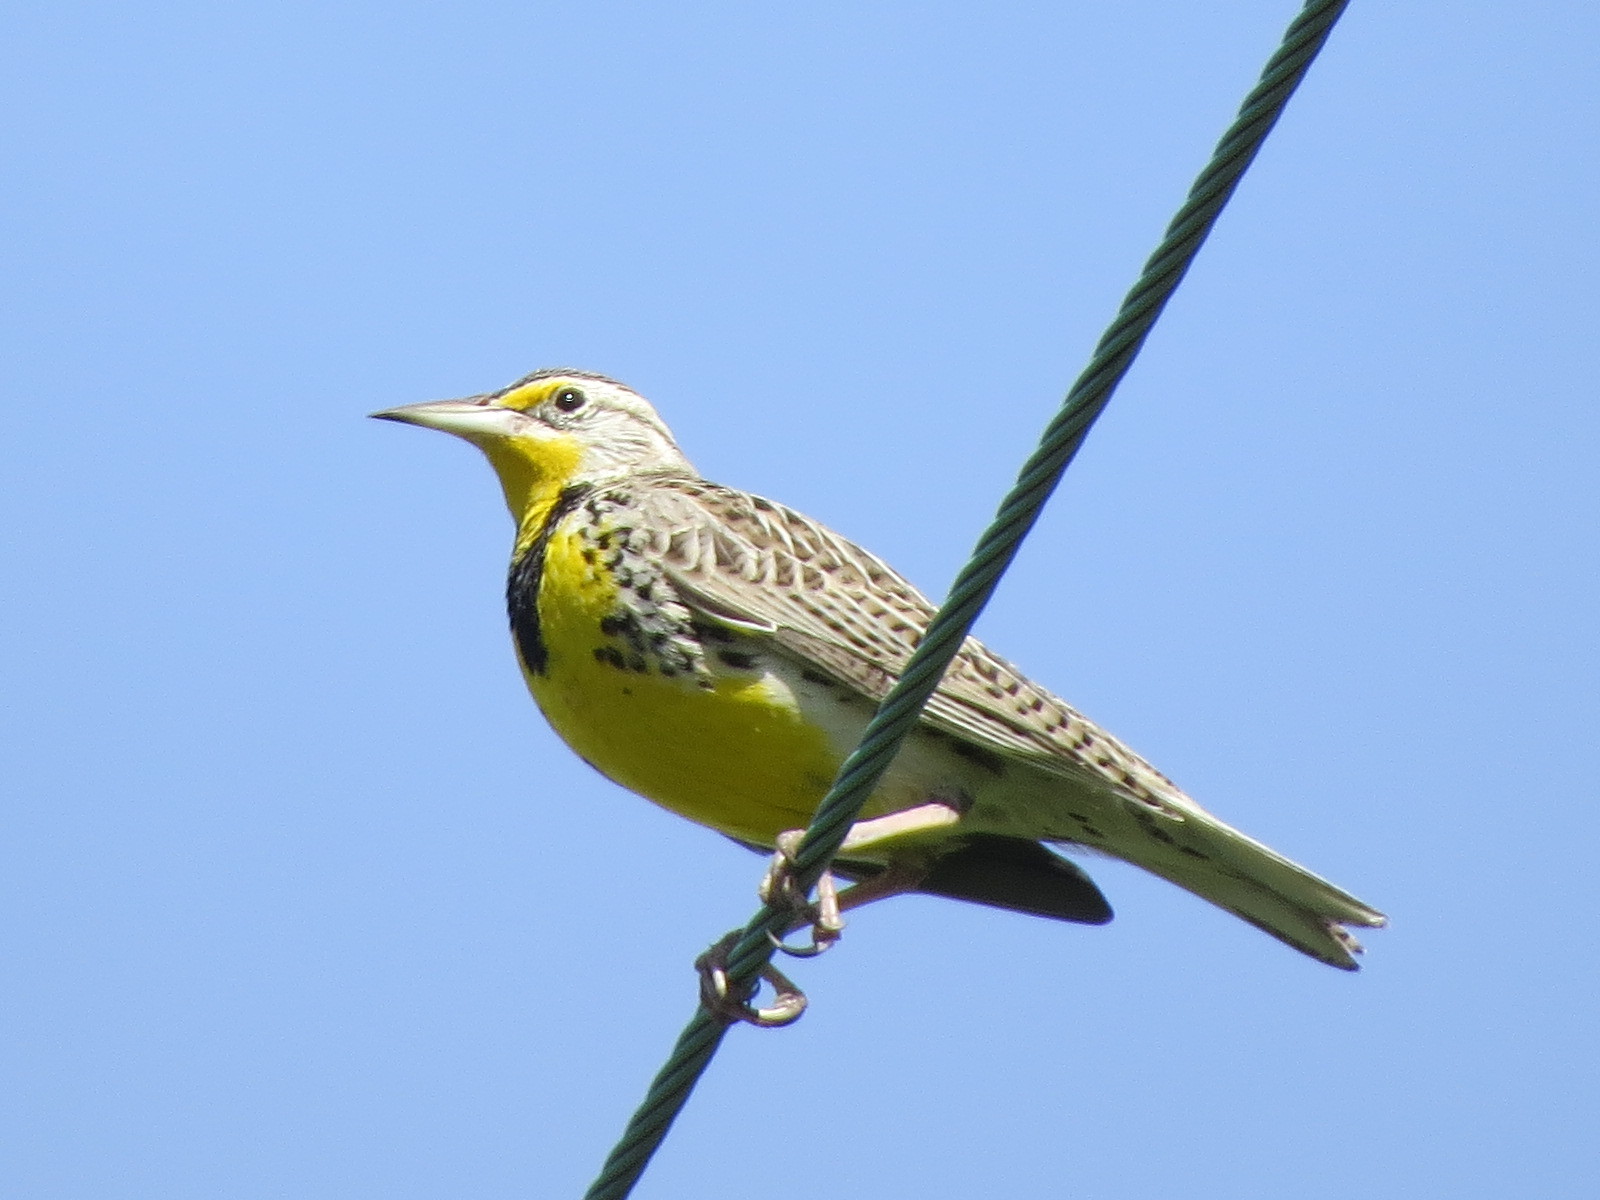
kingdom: Animalia
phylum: Chordata
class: Aves
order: Passeriformes
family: Icteridae
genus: Sturnella
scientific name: Sturnella neglecta
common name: Western meadowlark
